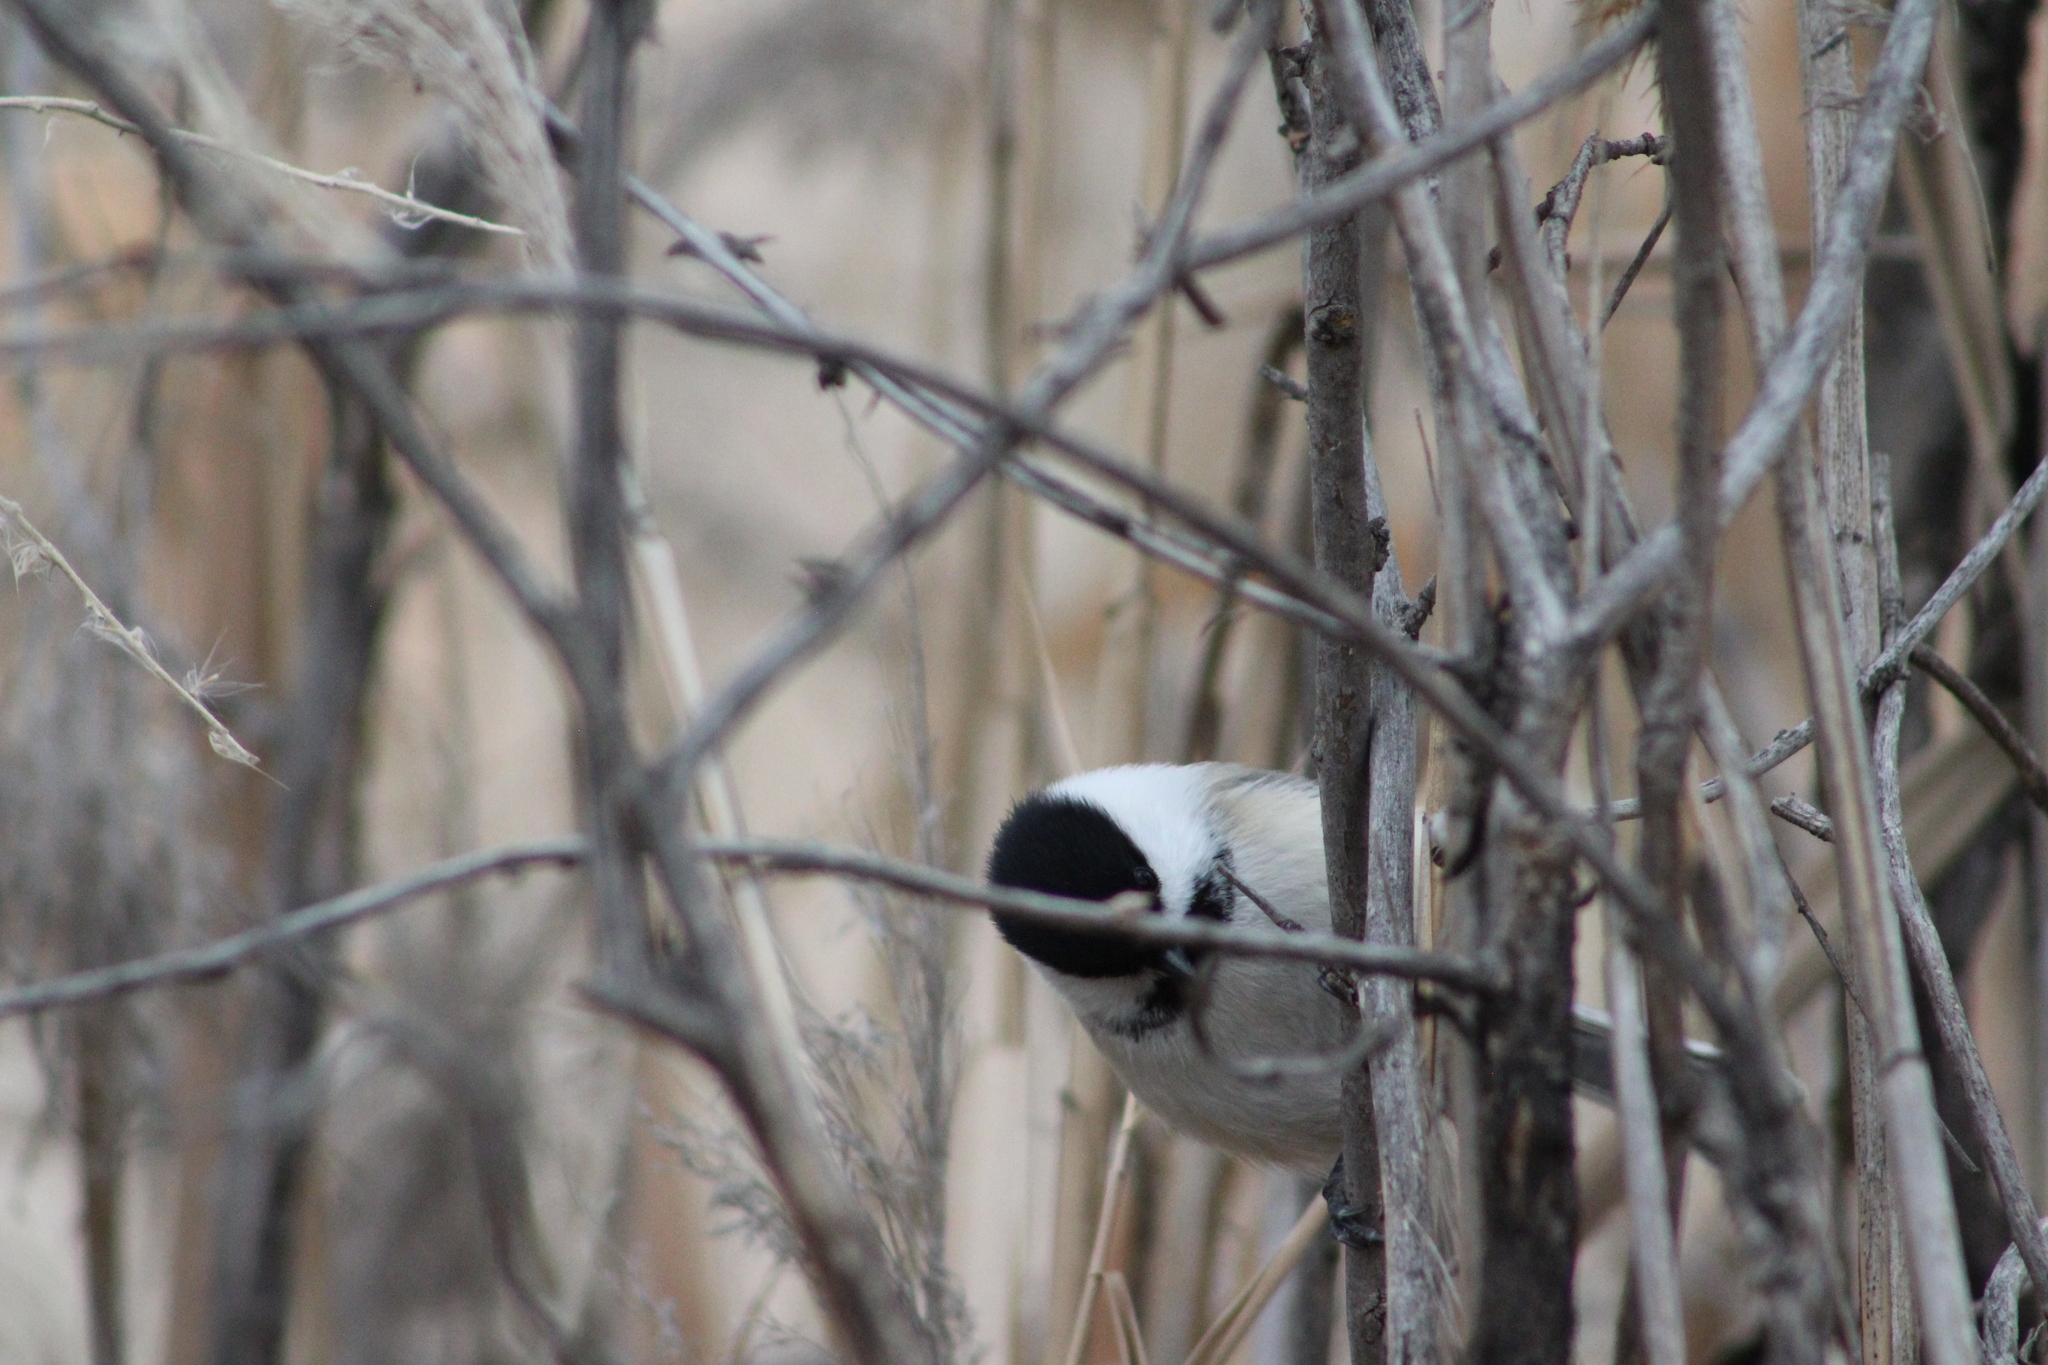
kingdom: Animalia
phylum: Chordata
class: Aves
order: Passeriformes
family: Paridae
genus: Poecile
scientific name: Poecile atricapillus
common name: Black-capped chickadee
